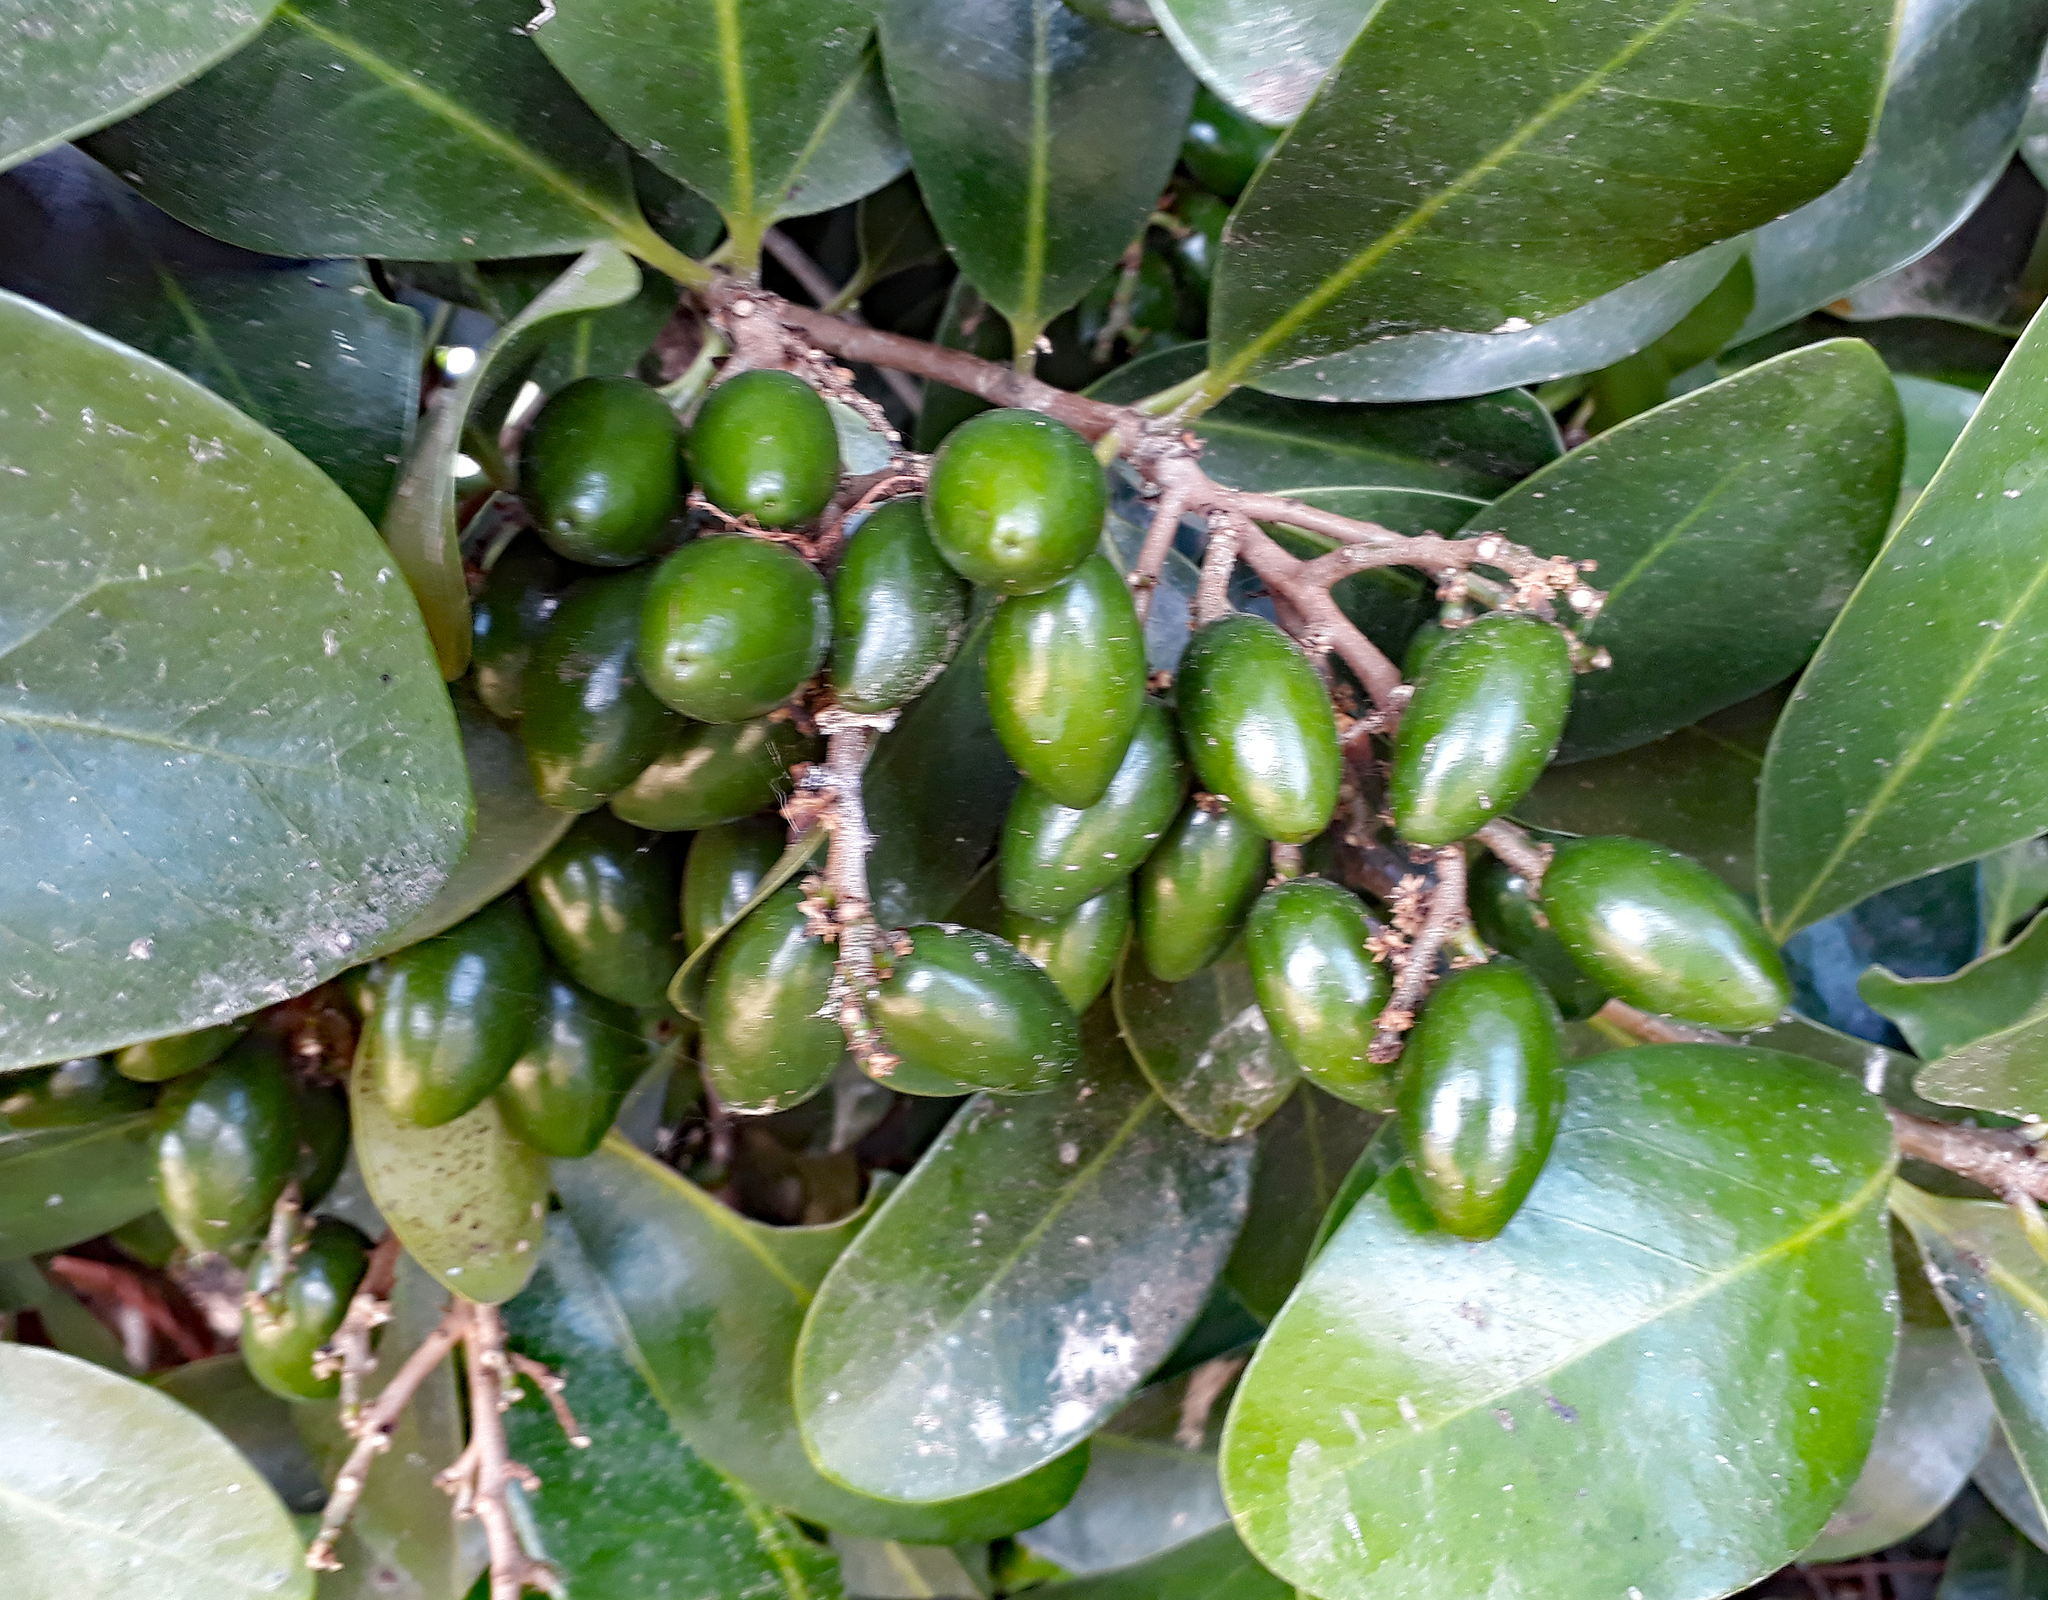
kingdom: Plantae
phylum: Tracheophyta
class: Magnoliopsida
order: Cucurbitales
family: Corynocarpaceae
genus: Corynocarpus
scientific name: Corynocarpus laevigatus
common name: New zealand laurel
